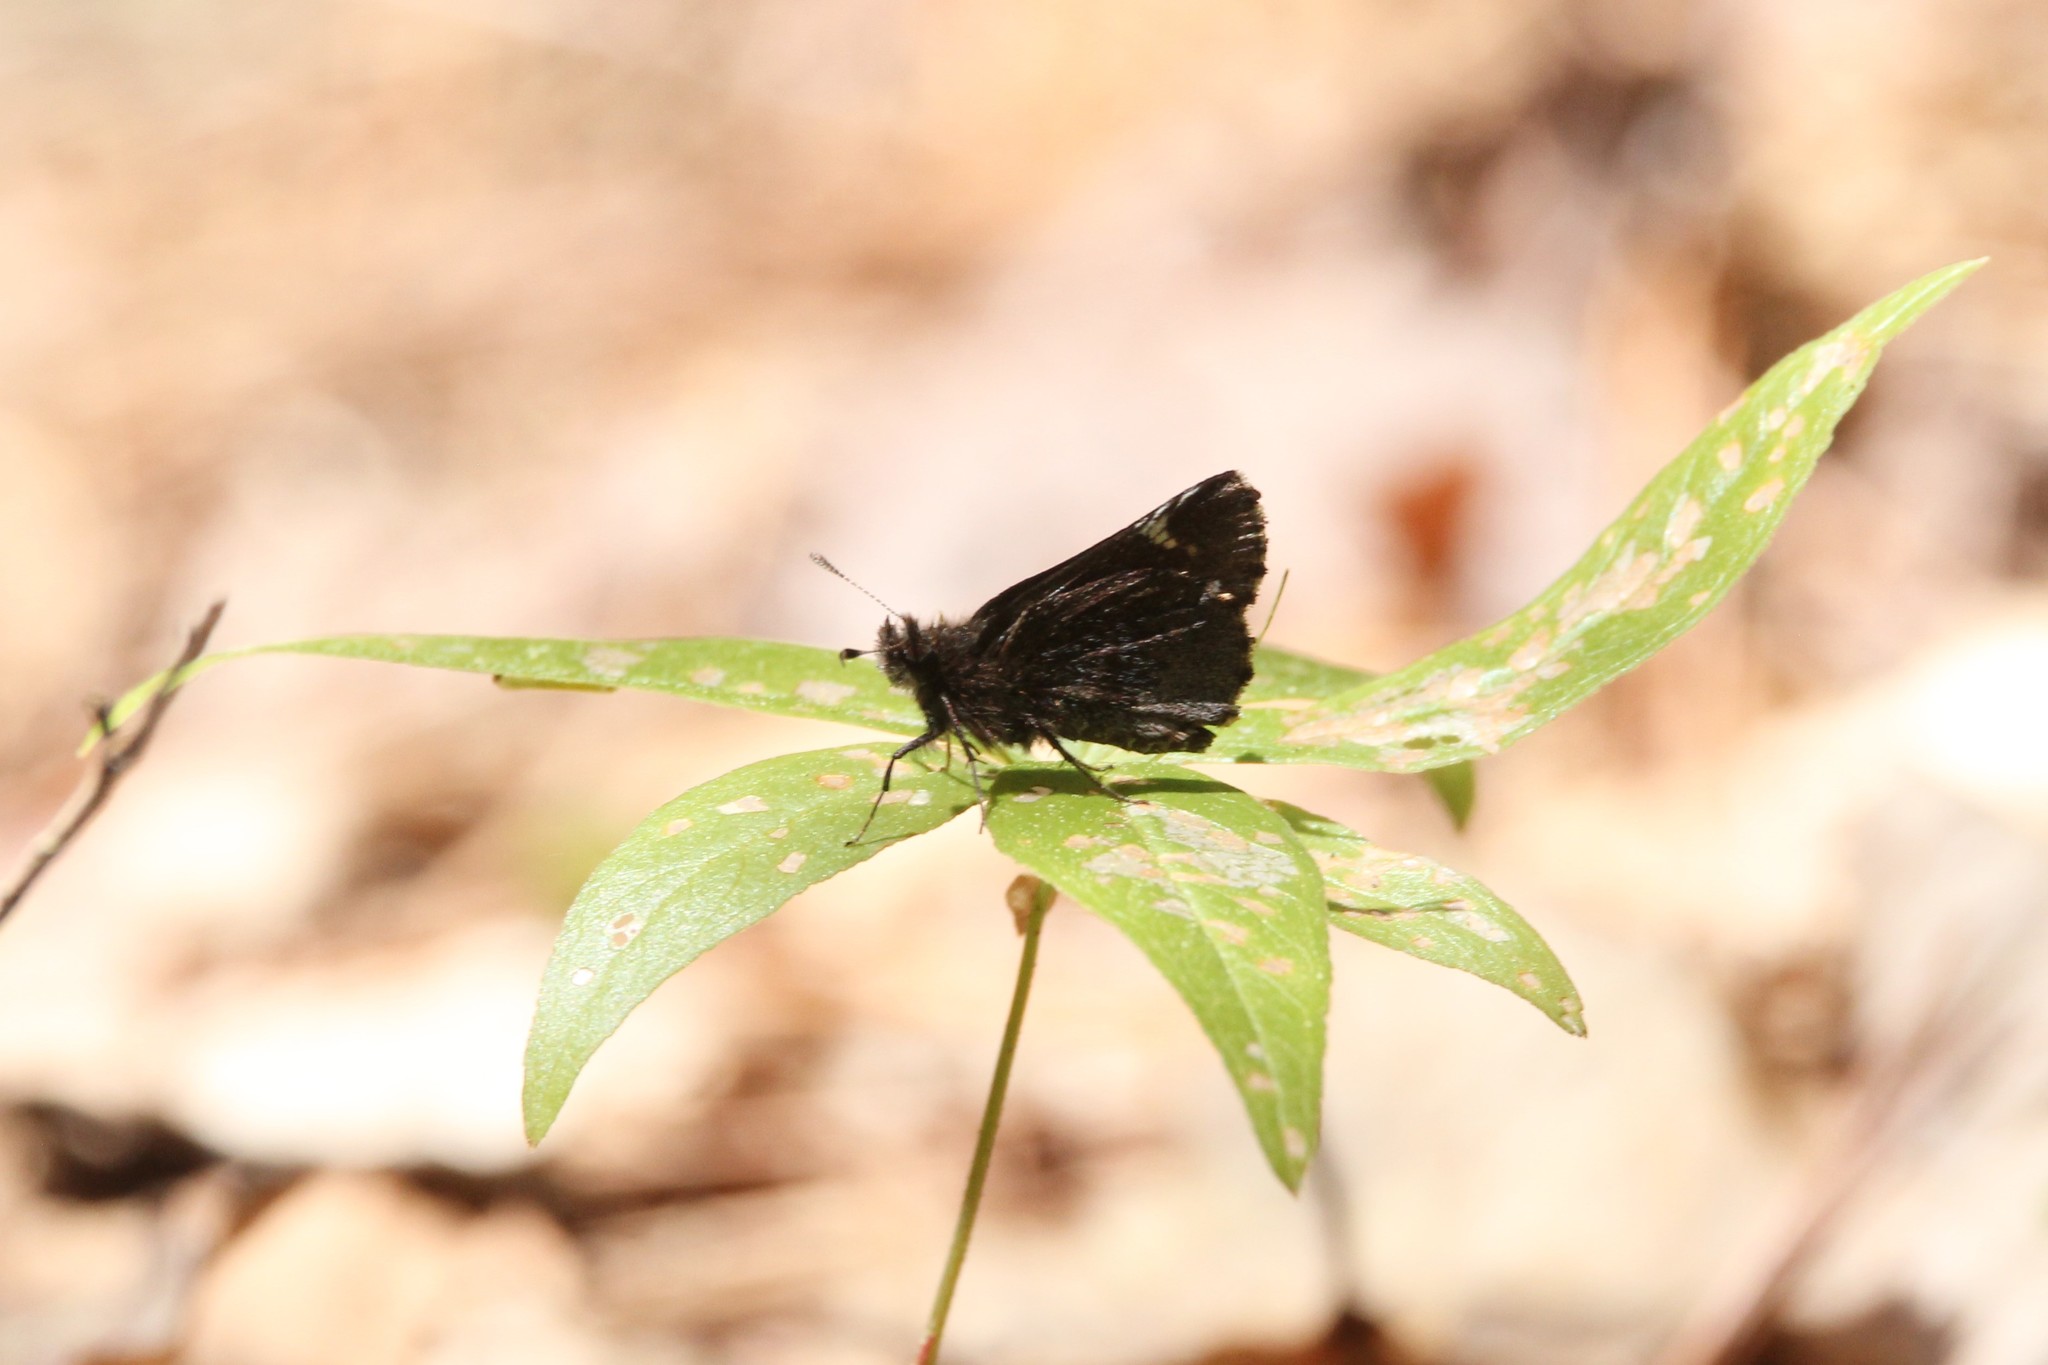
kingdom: Animalia
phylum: Arthropoda
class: Insecta
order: Lepidoptera
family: Hesperiidae
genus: Mastor
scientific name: Mastor vialis
